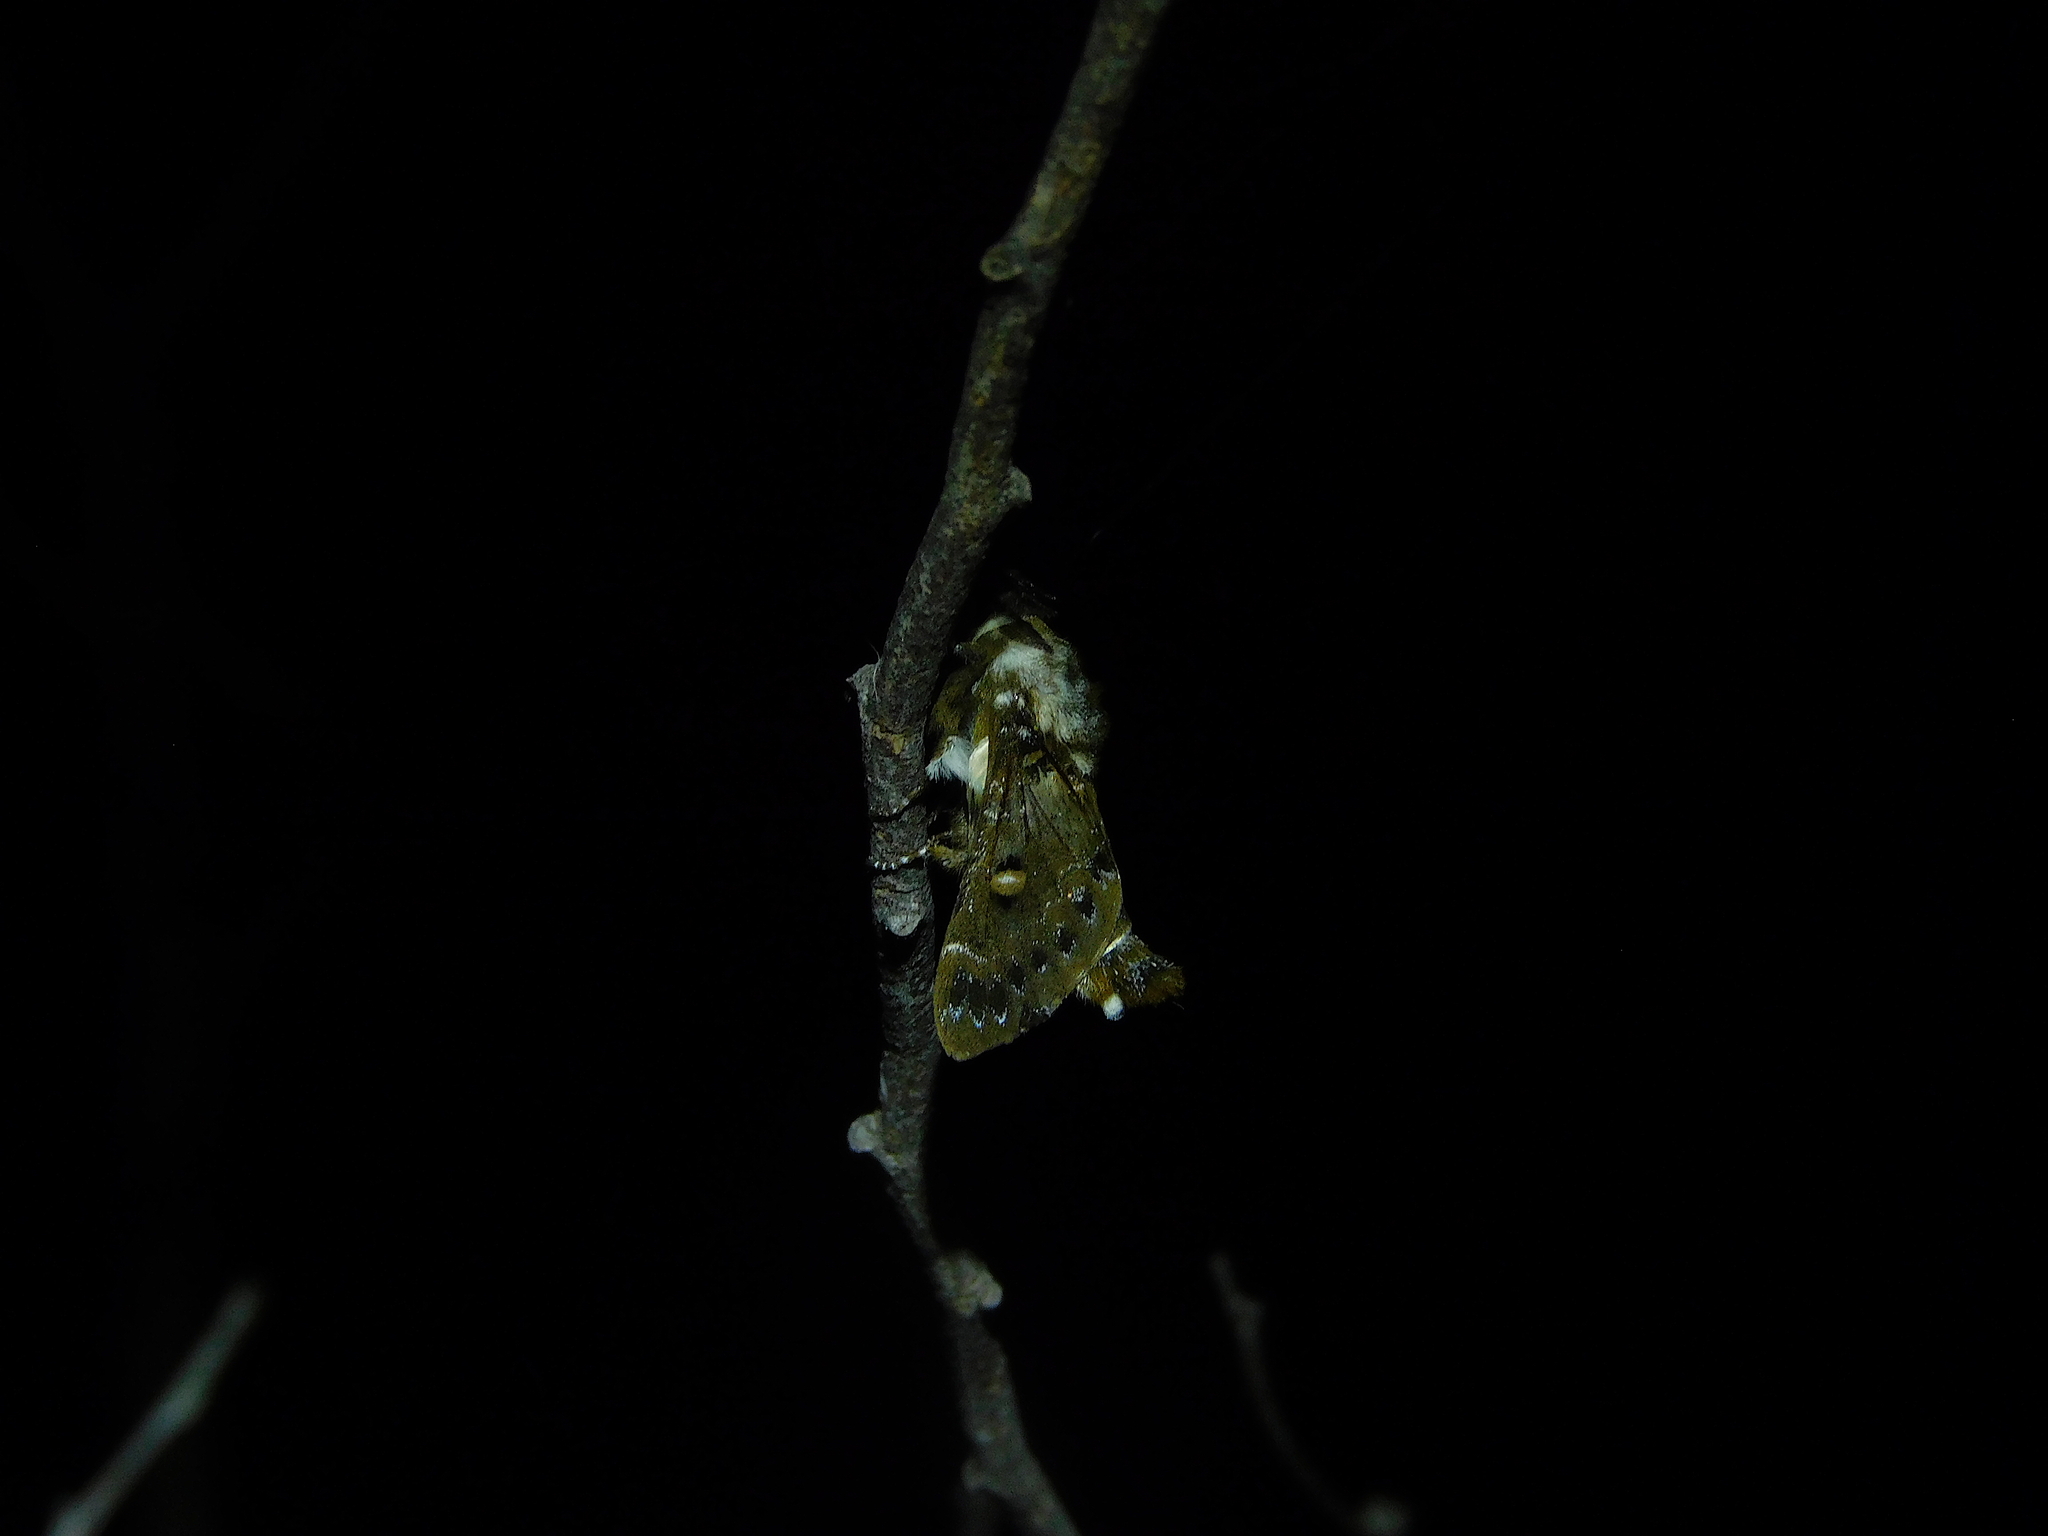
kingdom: Animalia
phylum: Arthropoda
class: Insecta
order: Lepidoptera
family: Lasiocampidae
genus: Genduara
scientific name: Genduara punctigera
